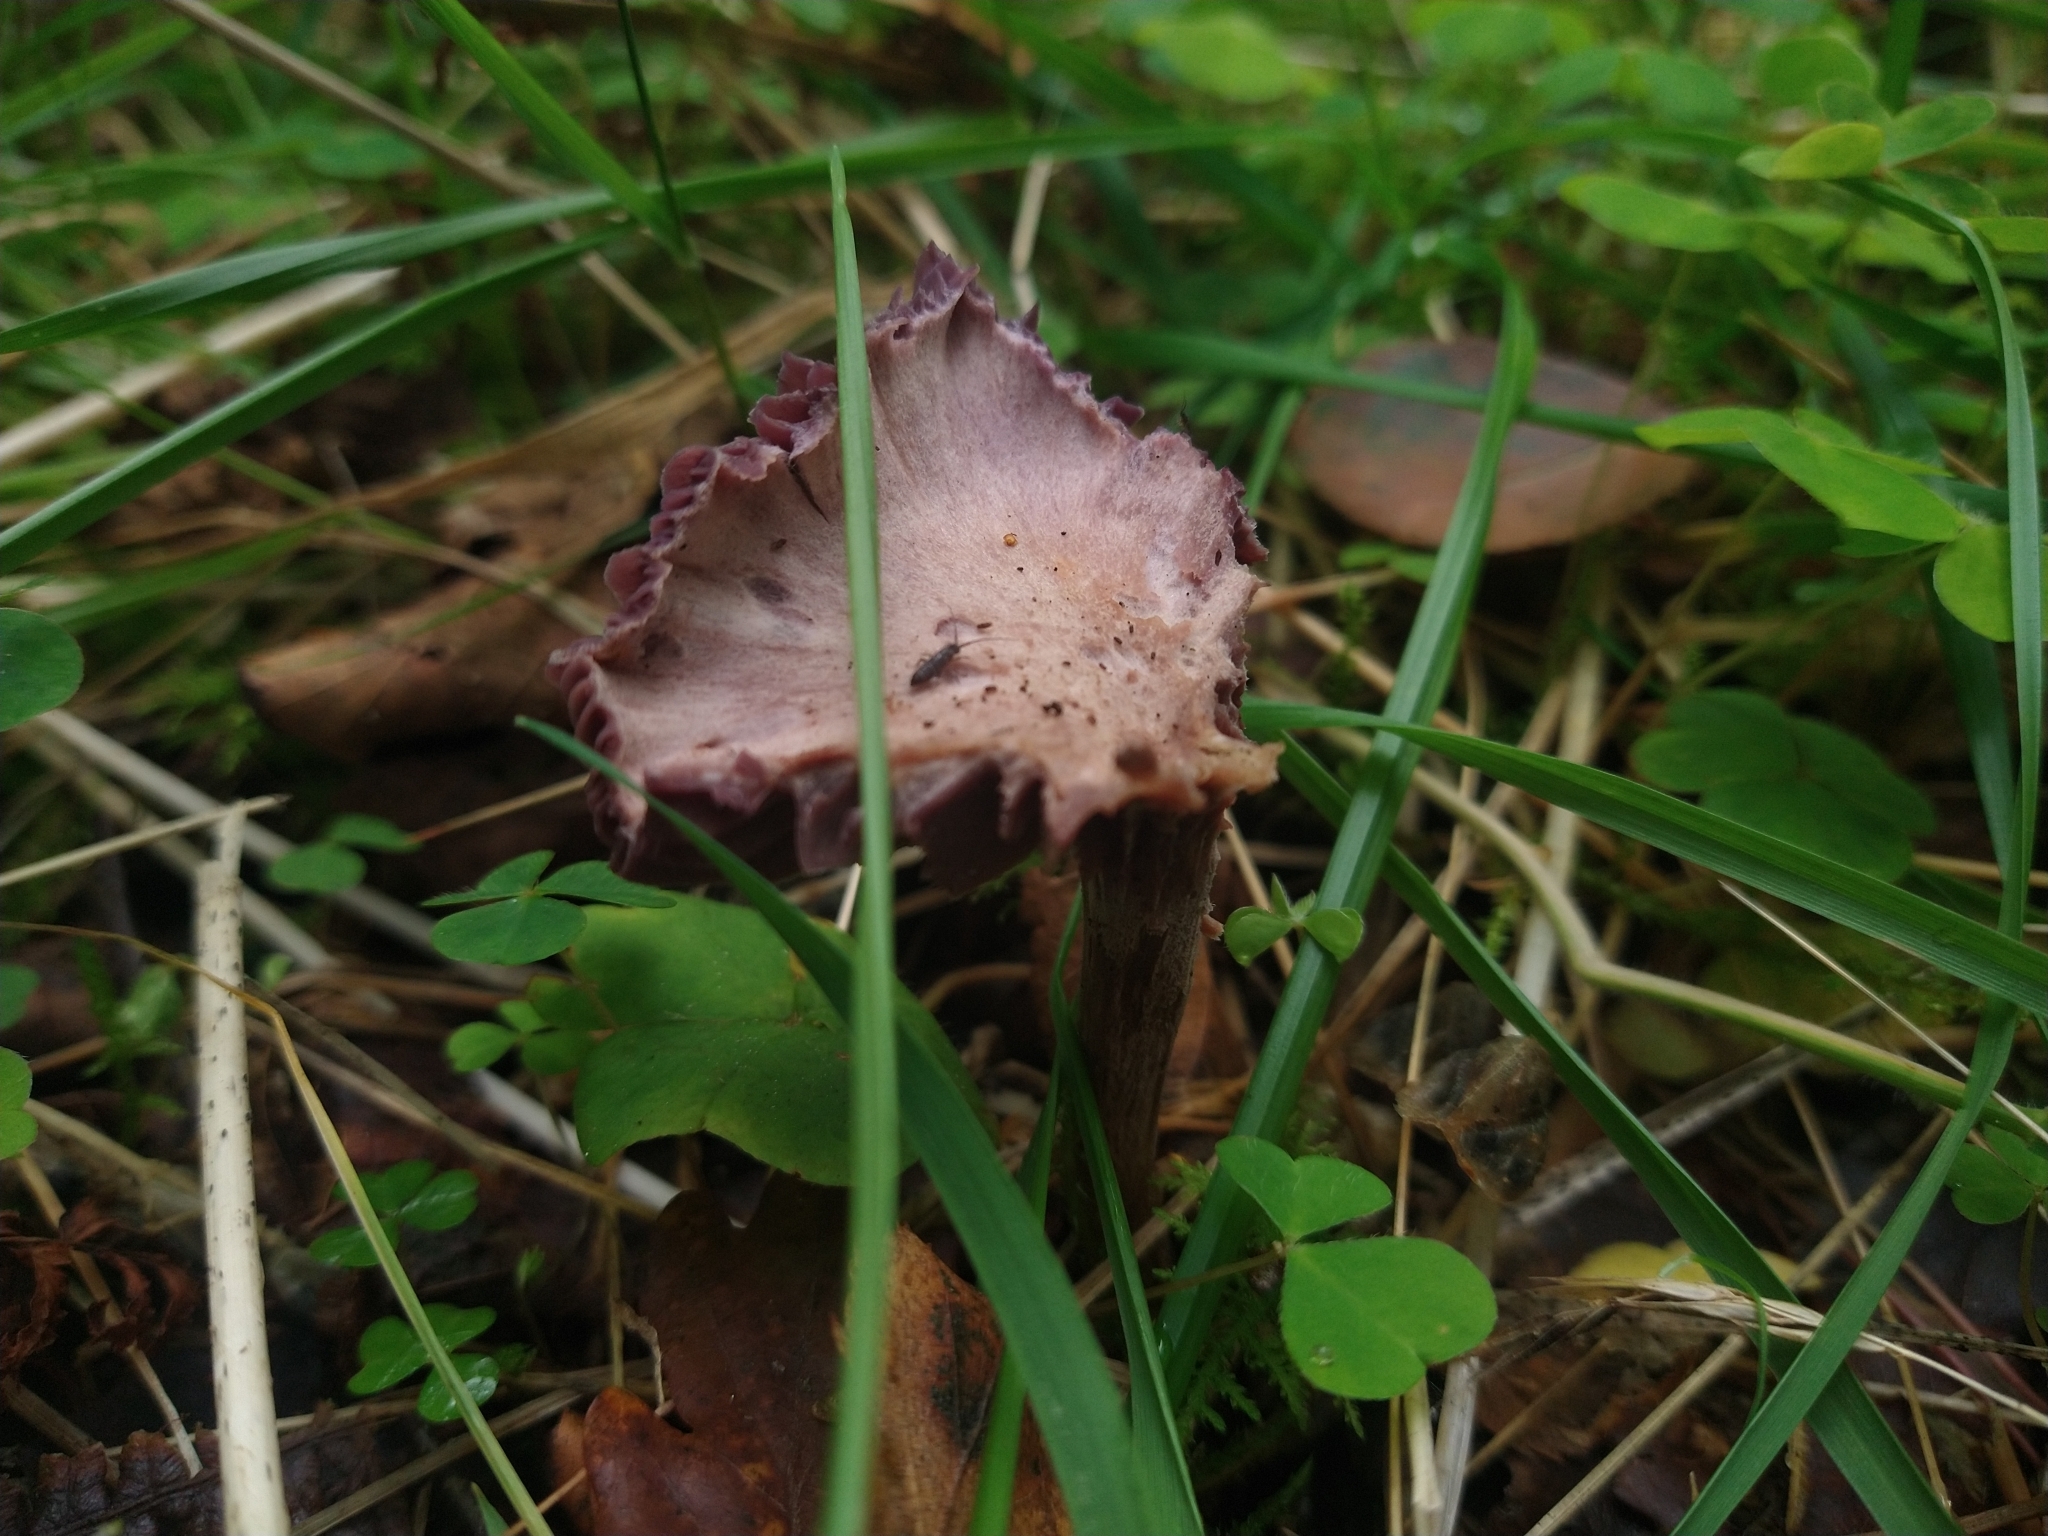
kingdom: Fungi
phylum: Basidiomycota
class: Agaricomycetes
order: Agaricales
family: Hydnangiaceae
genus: Laccaria
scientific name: Laccaria amethystina
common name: Amethyst deceiver
